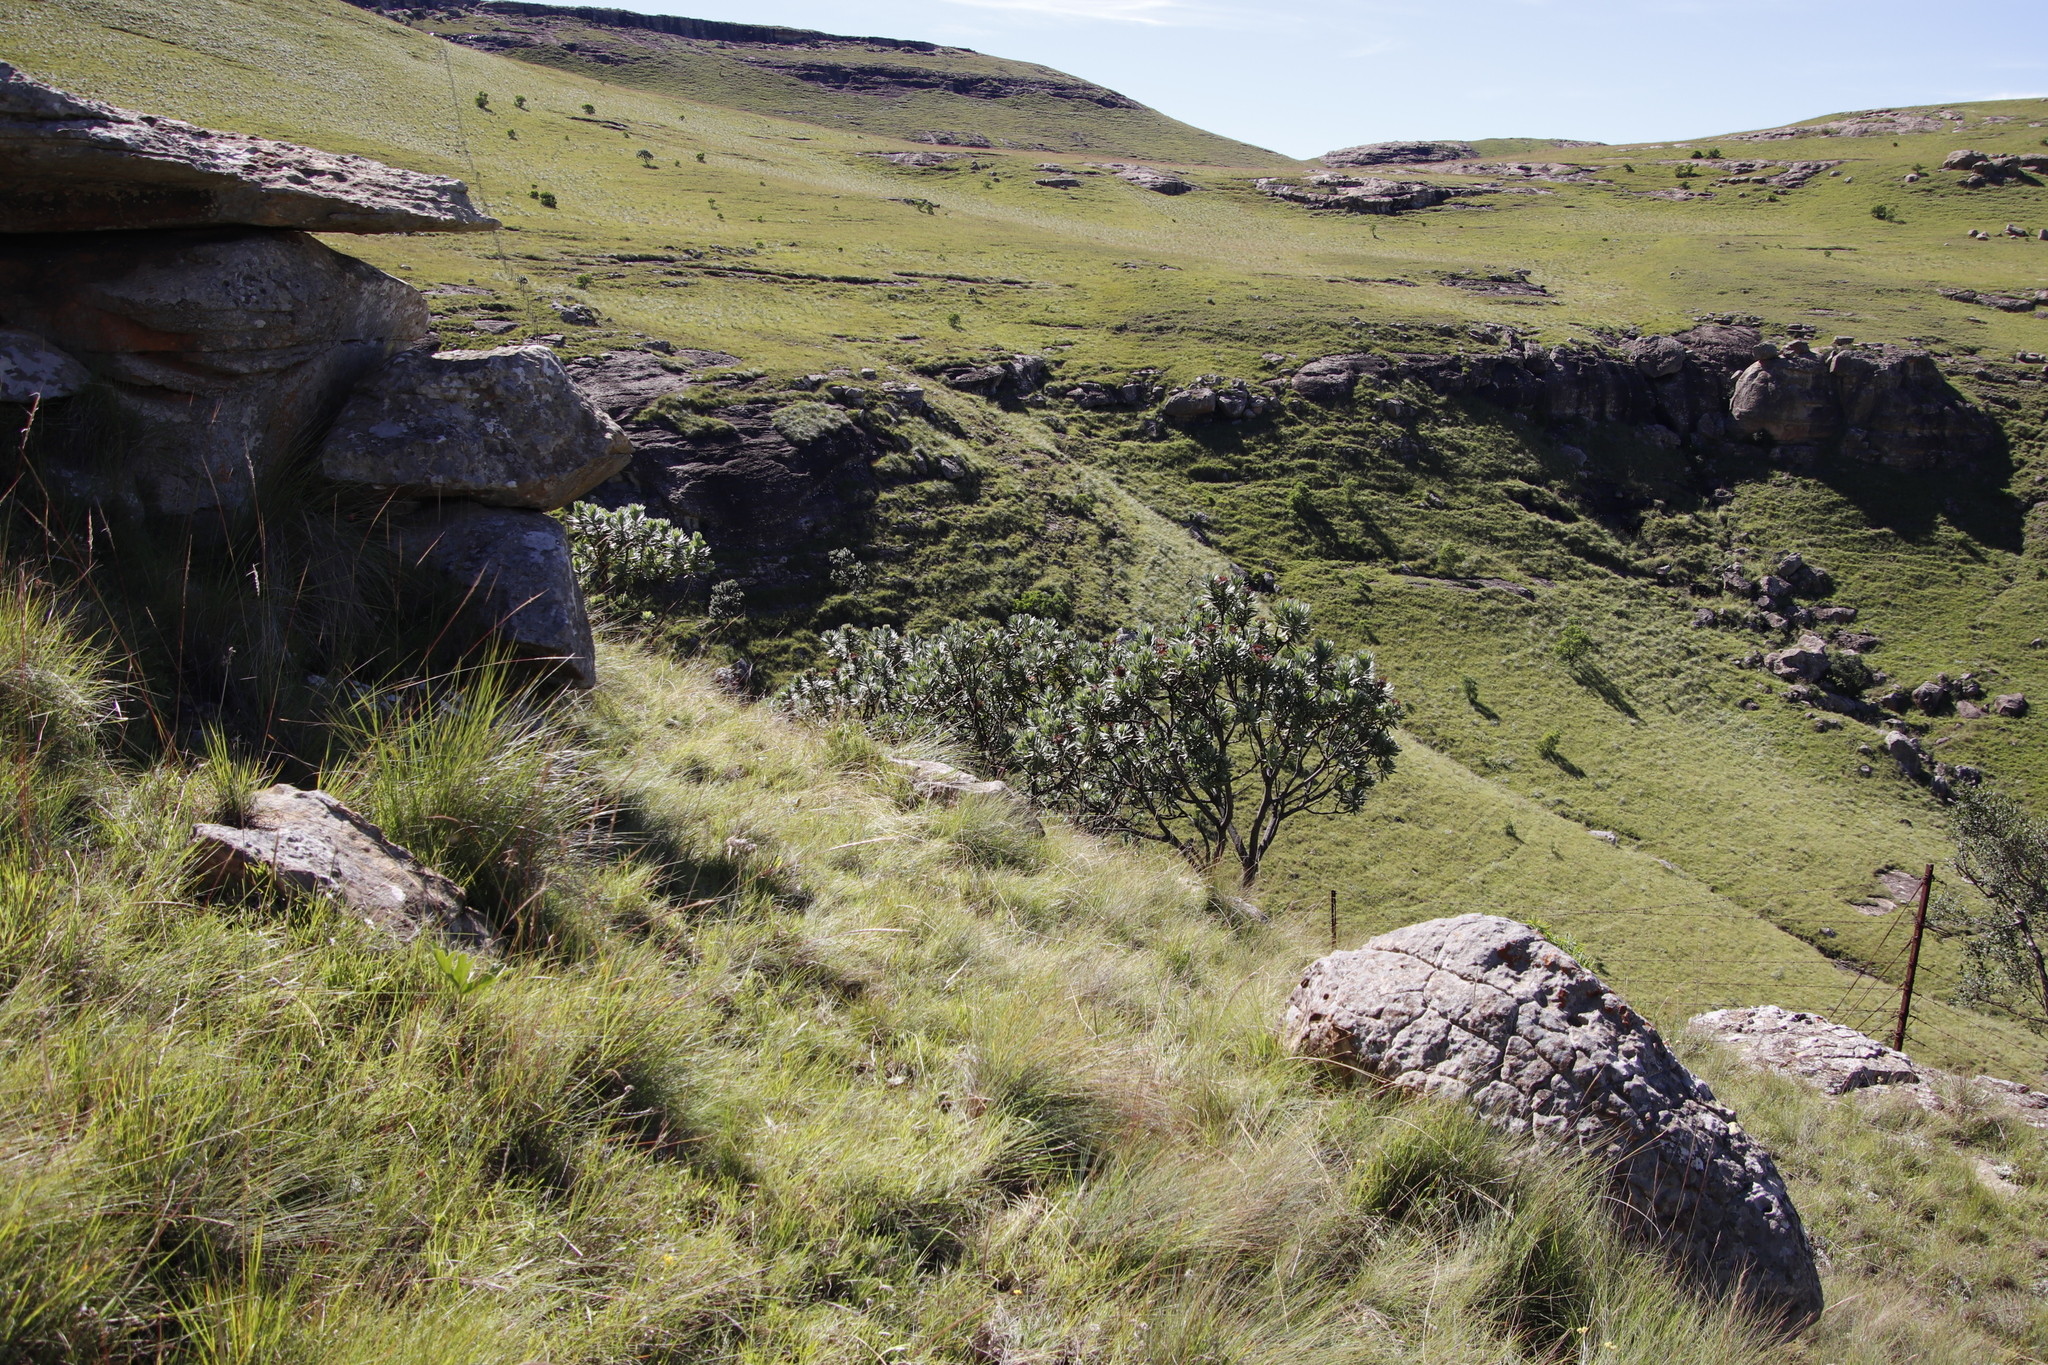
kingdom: Plantae
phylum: Tracheophyta
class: Magnoliopsida
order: Proteales
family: Proteaceae
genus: Protea
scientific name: Protea roupelliae
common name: Silver sugarbush
